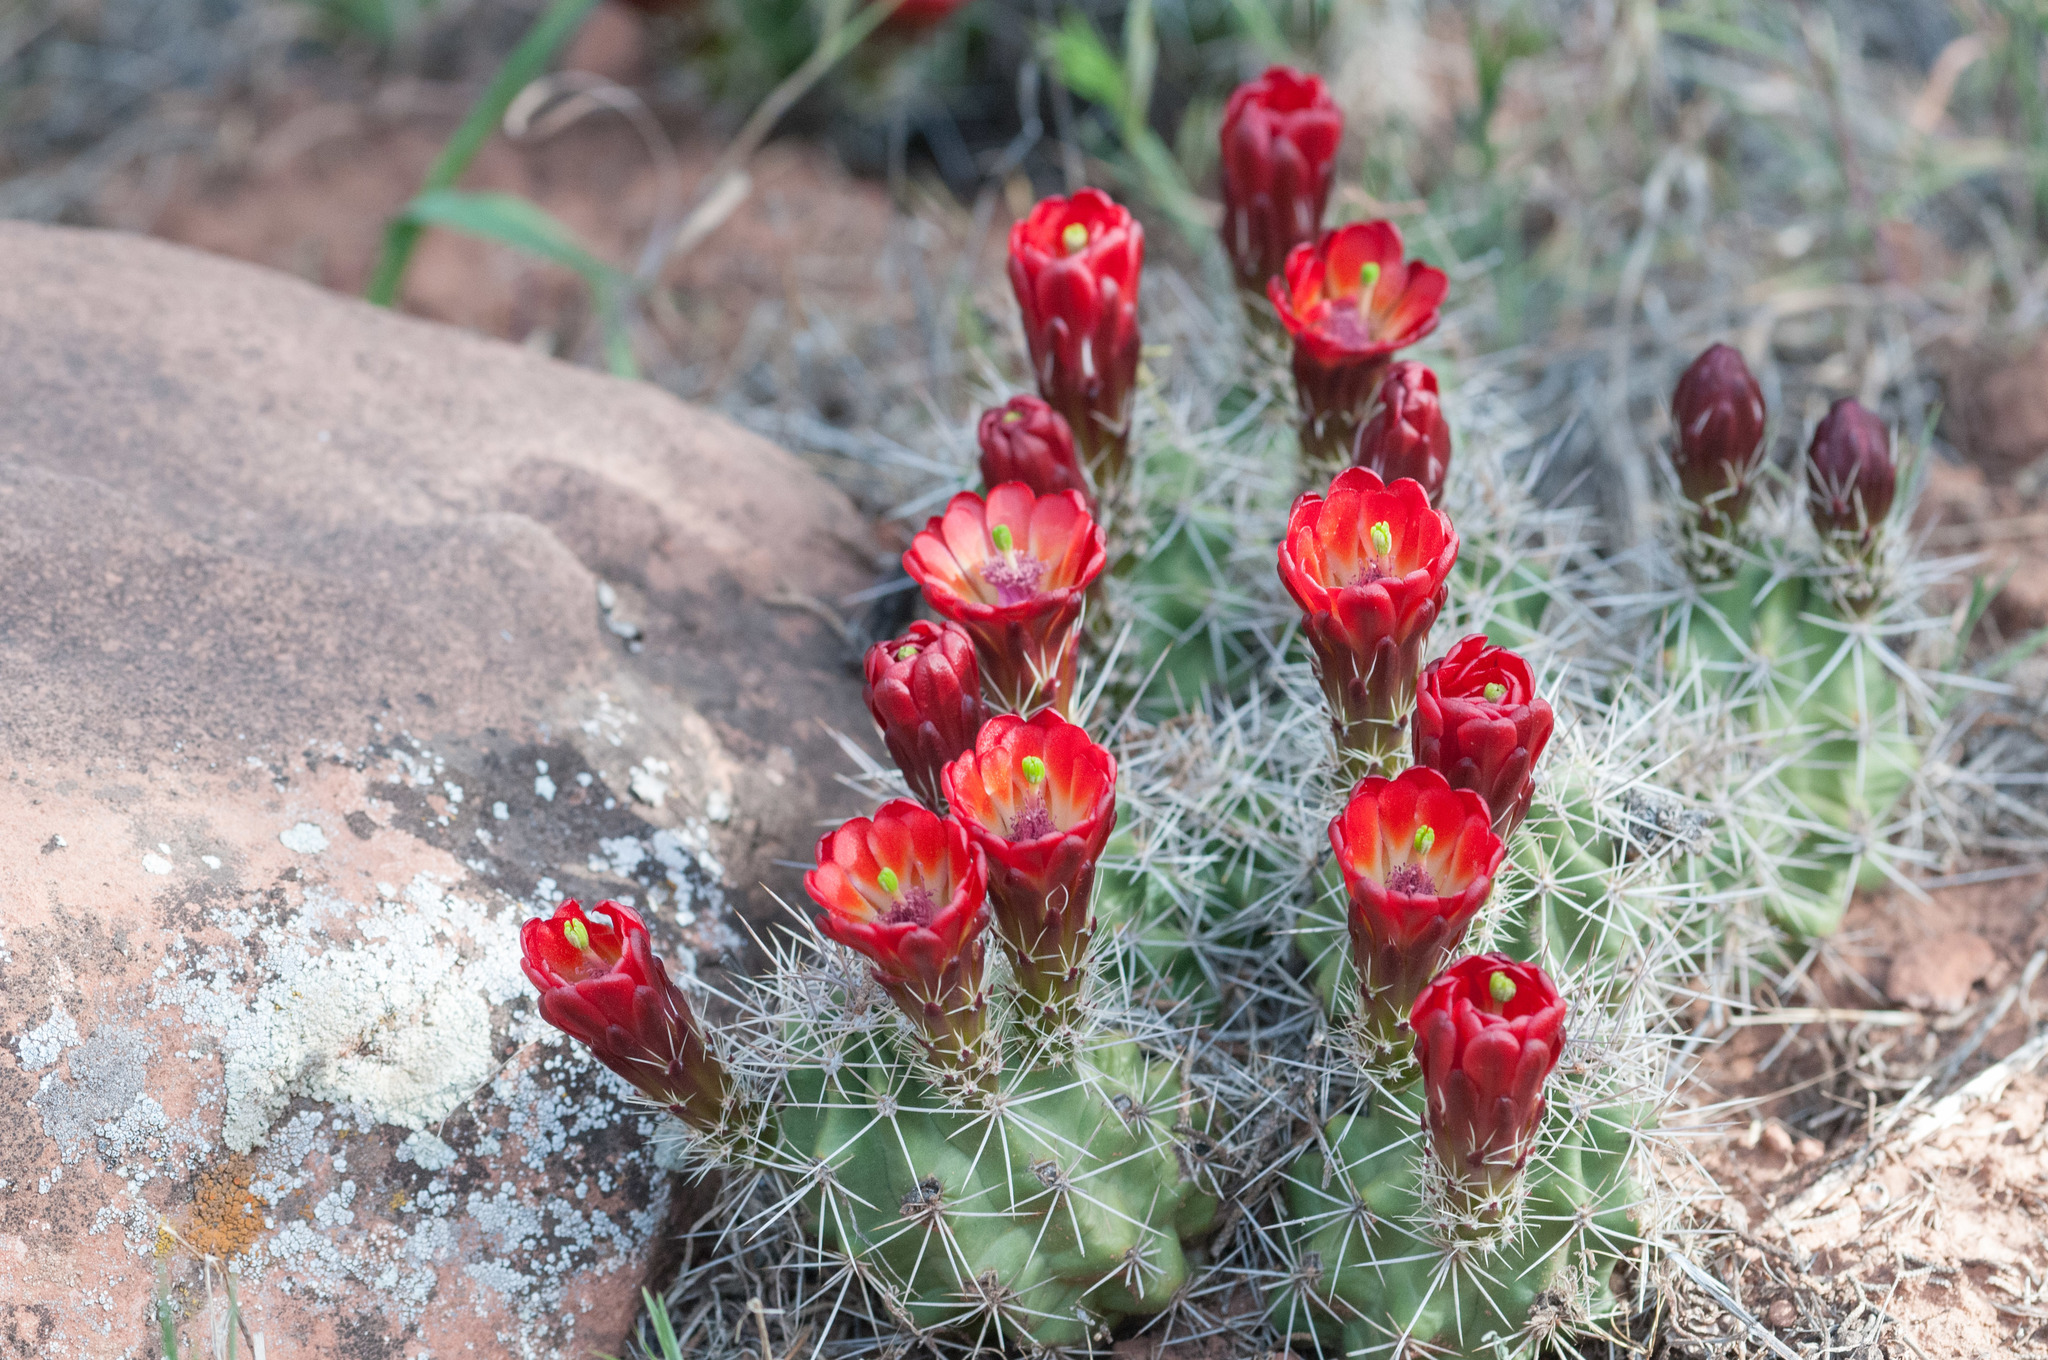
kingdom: Plantae
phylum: Tracheophyta
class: Magnoliopsida
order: Caryophyllales
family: Cactaceae
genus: Echinocereus
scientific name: Echinocereus triglochidiatus
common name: Claretcup hedgehog
